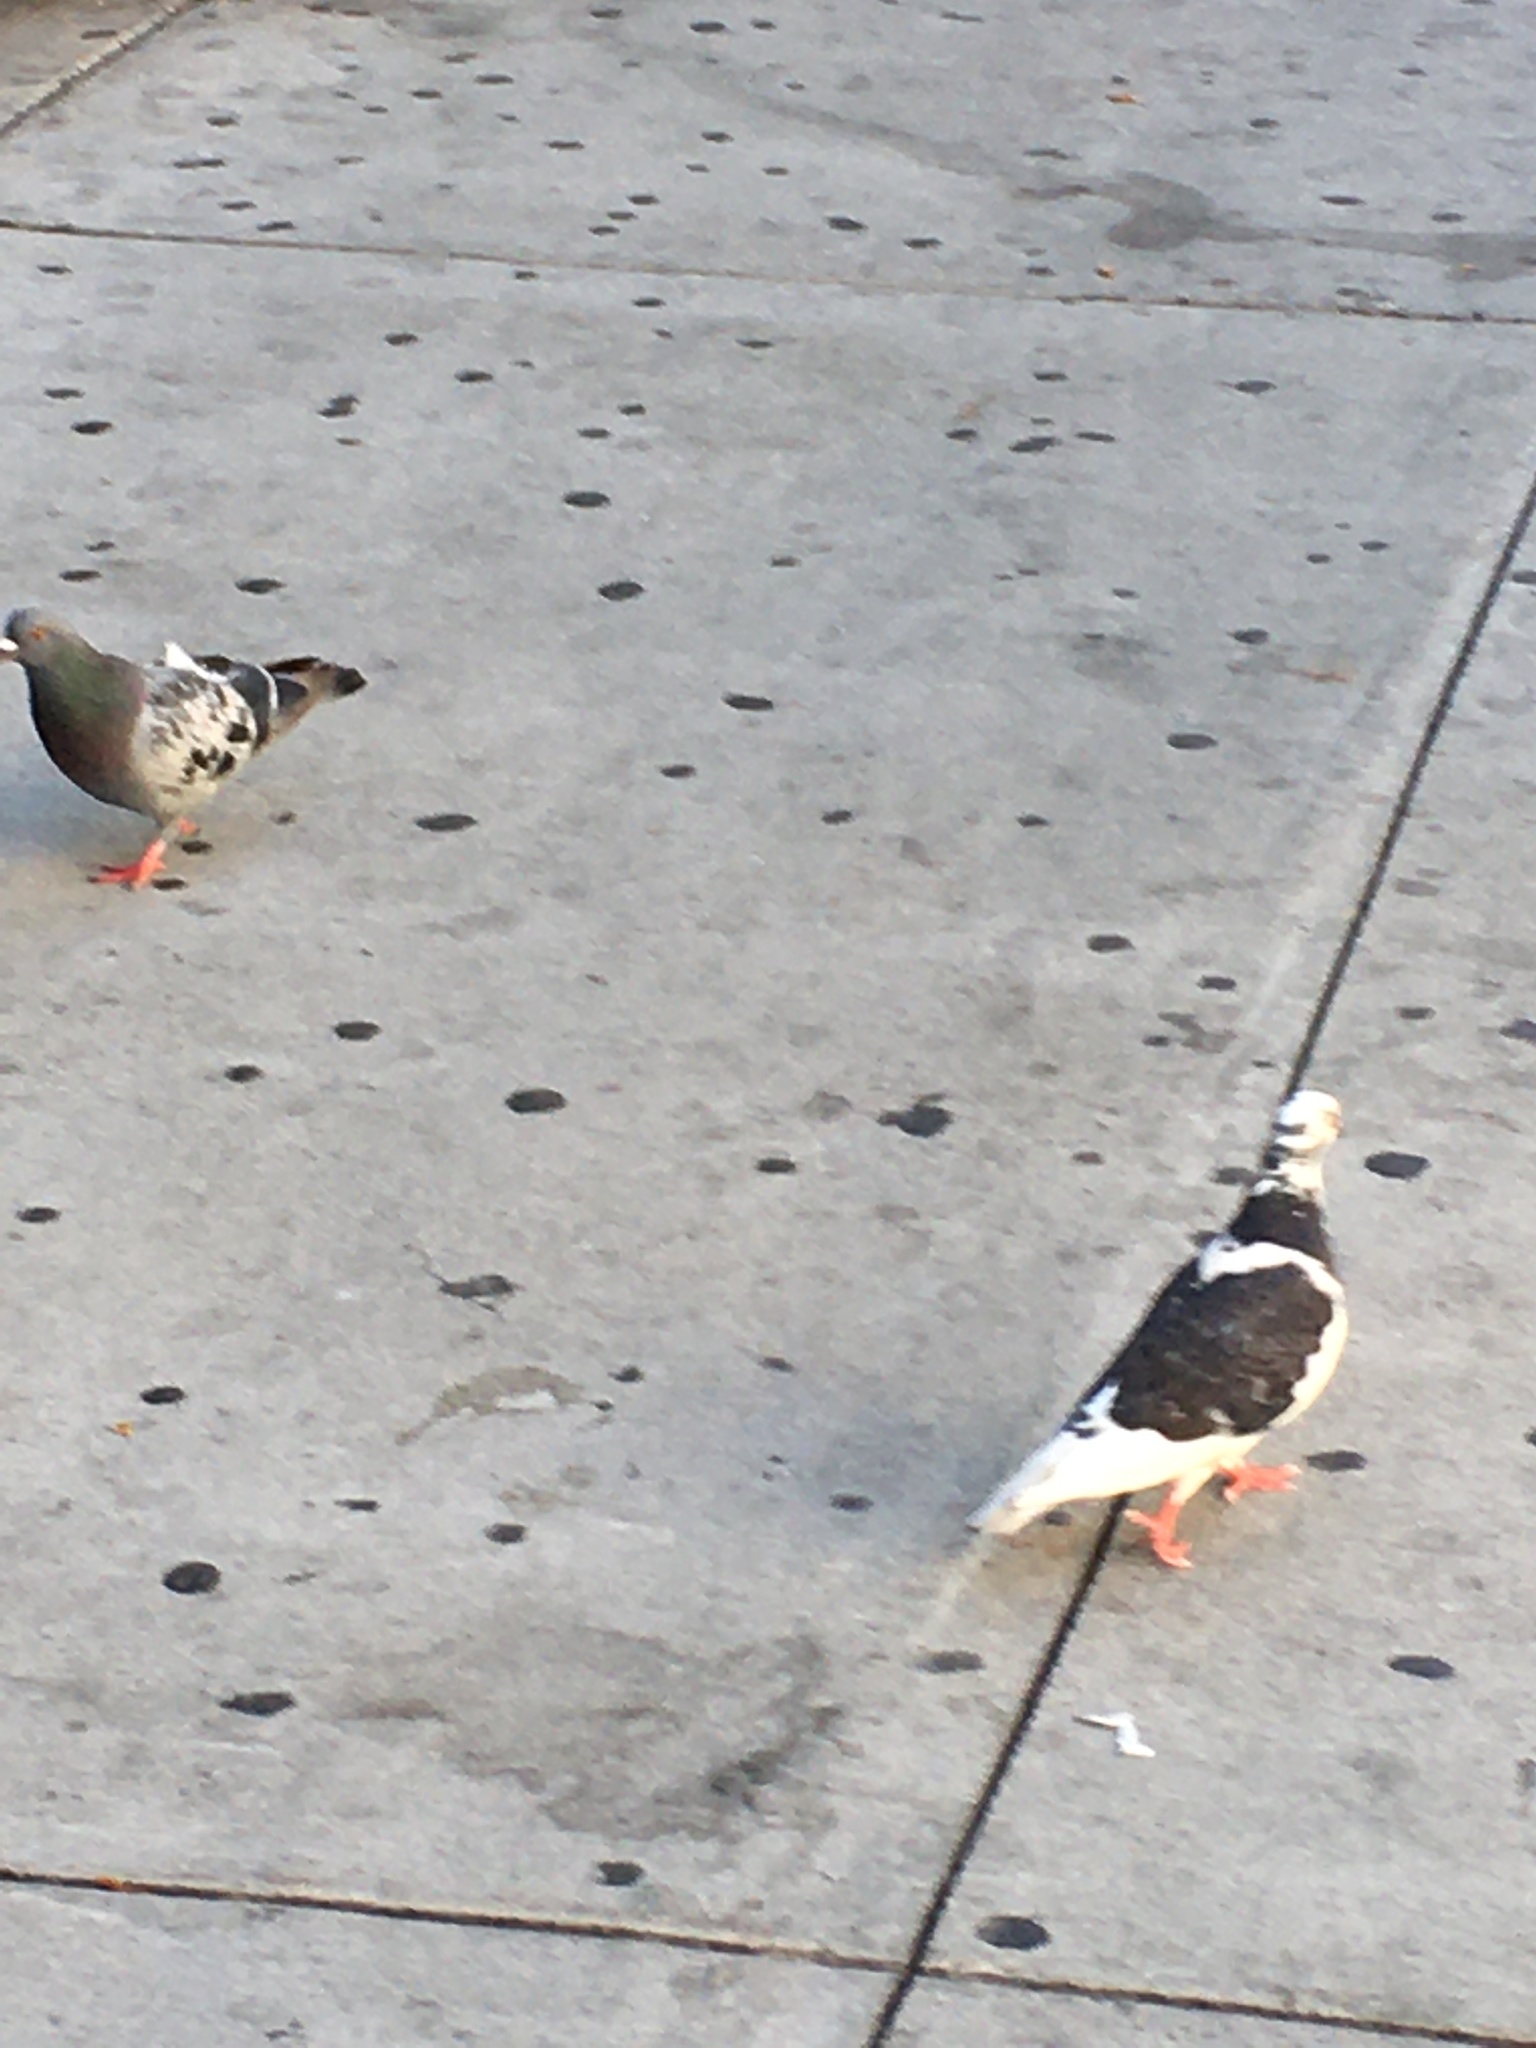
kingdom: Animalia
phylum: Chordata
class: Aves
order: Columbiformes
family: Columbidae
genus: Columba
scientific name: Columba livia
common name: Rock pigeon
